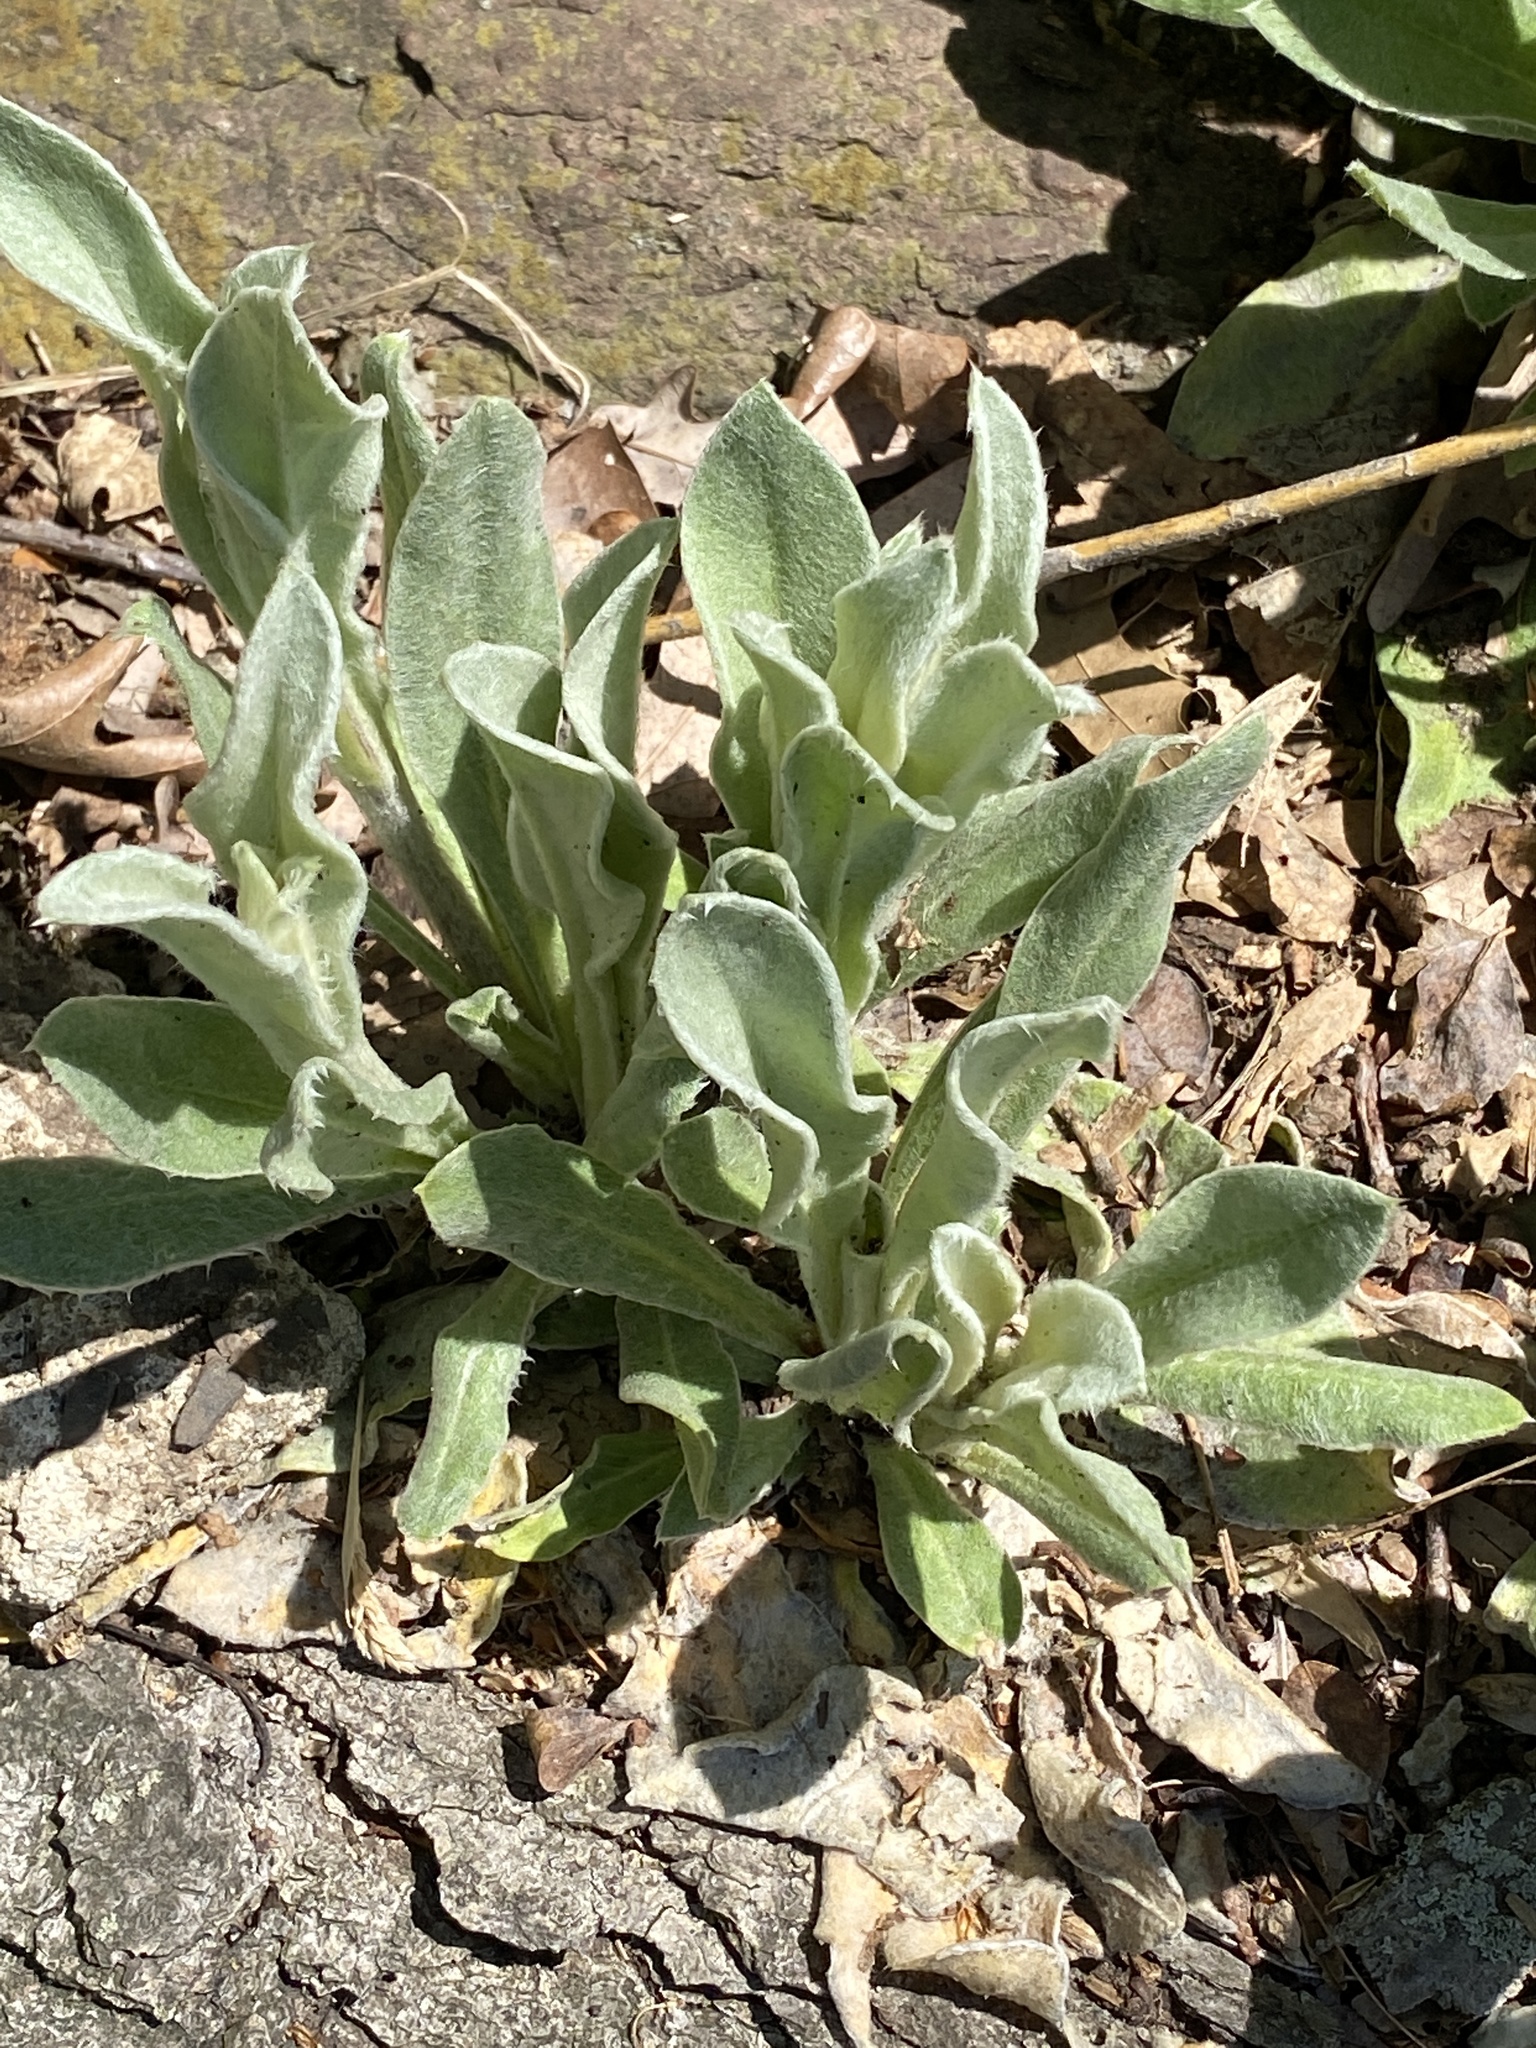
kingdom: Plantae
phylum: Tracheophyta
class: Magnoliopsida
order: Caryophyllales
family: Caryophyllaceae
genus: Silene
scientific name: Silene coronaria
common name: Rose campion
